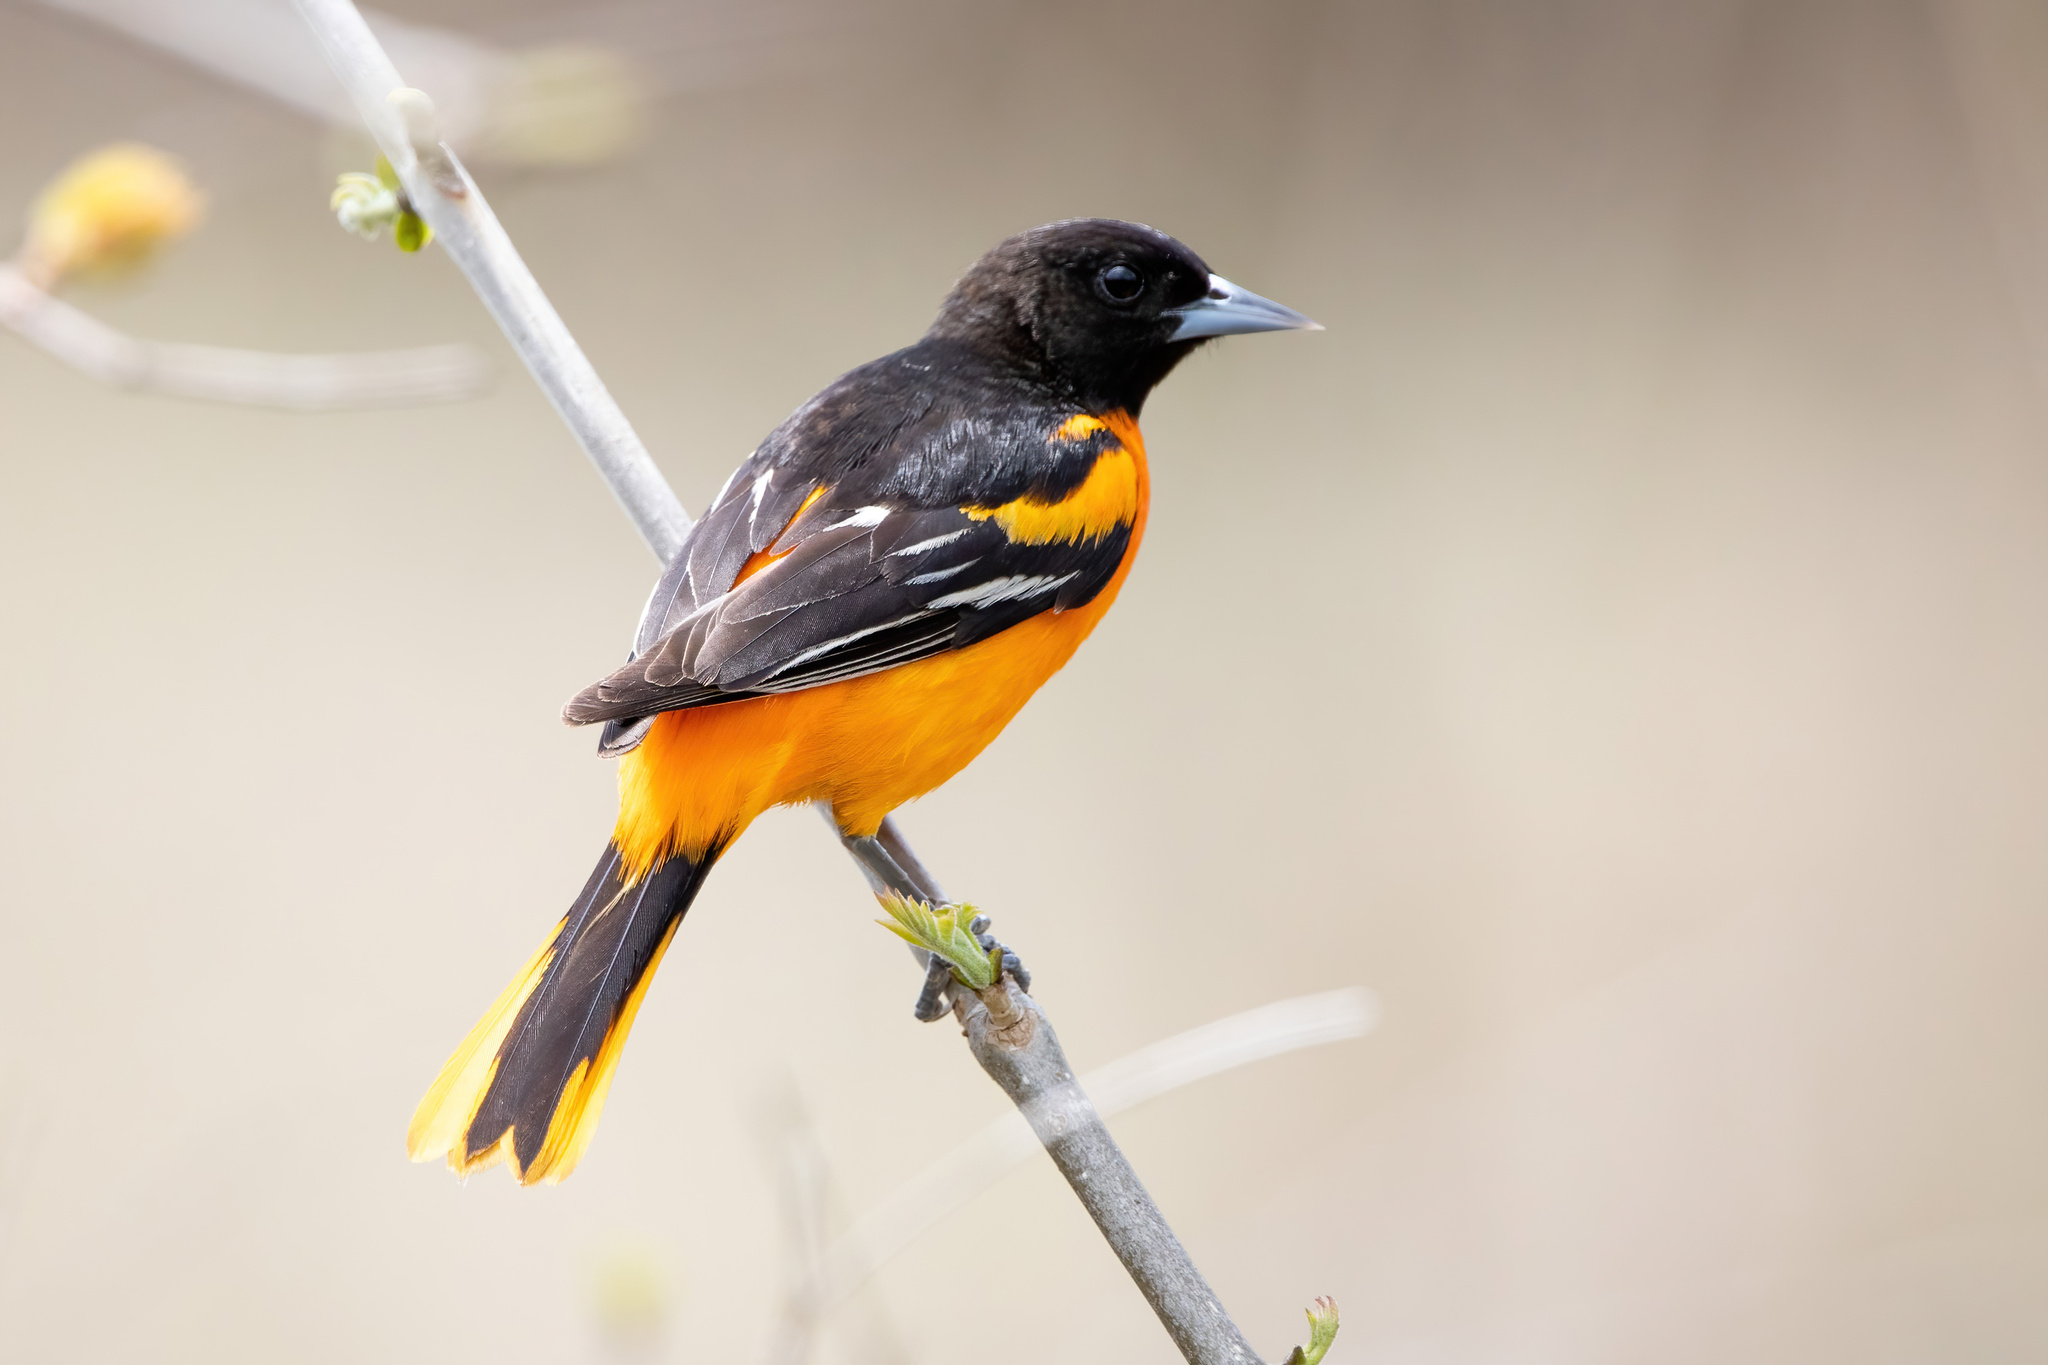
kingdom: Animalia
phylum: Chordata
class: Aves
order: Passeriformes
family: Icteridae
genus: Icterus
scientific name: Icterus galbula
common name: Baltimore oriole
